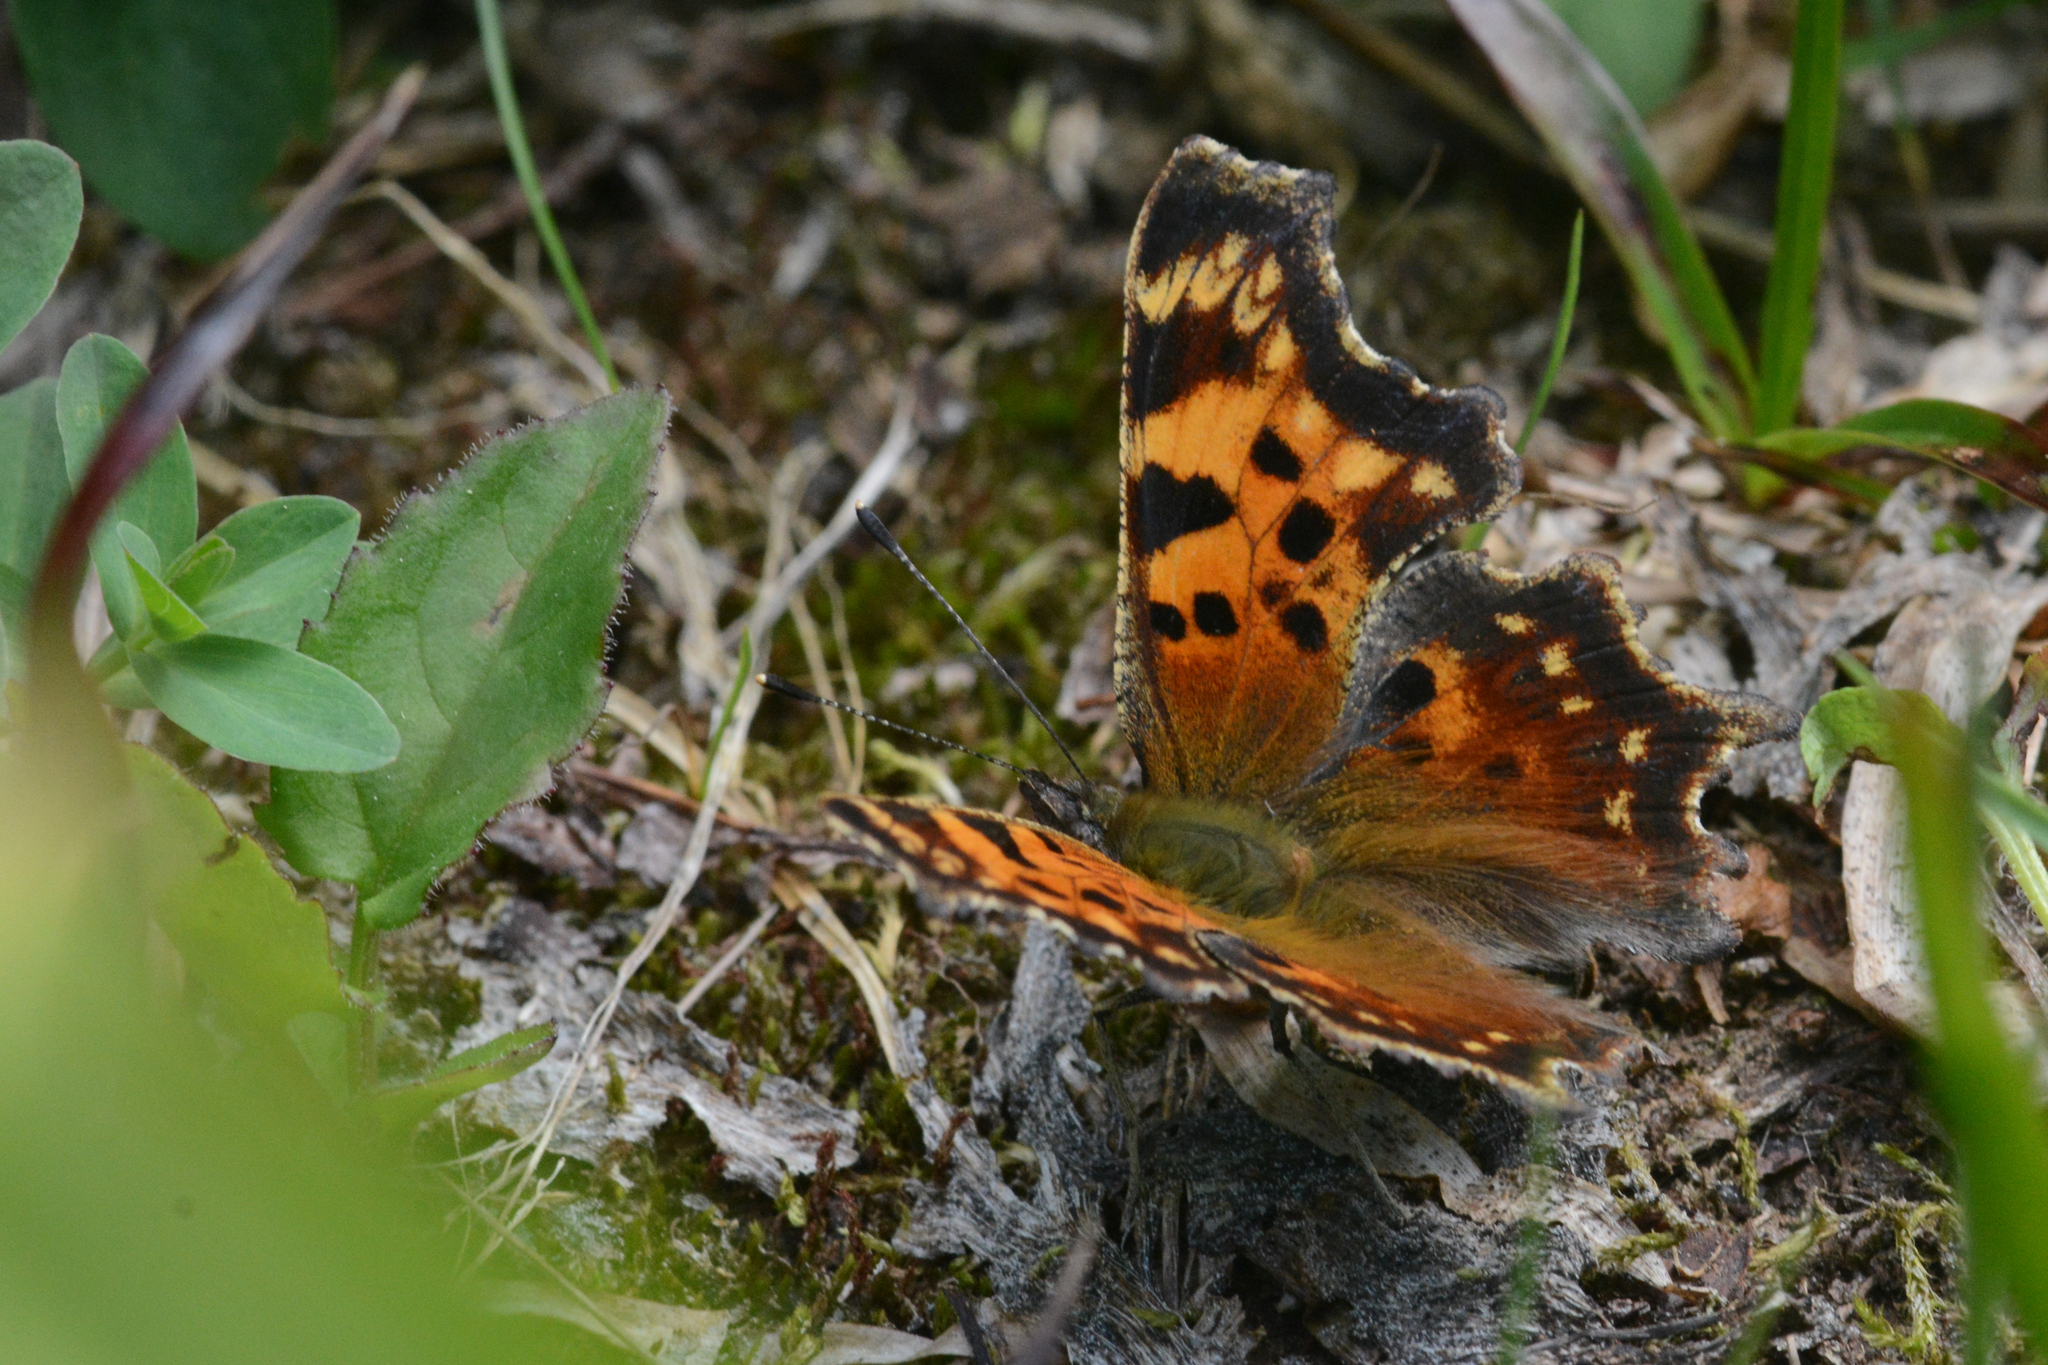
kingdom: Animalia
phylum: Arthropoda
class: Insecta
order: Lepidoptera
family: Nymphalidae
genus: Polygonia
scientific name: Polygonia faunus
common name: Green comma
